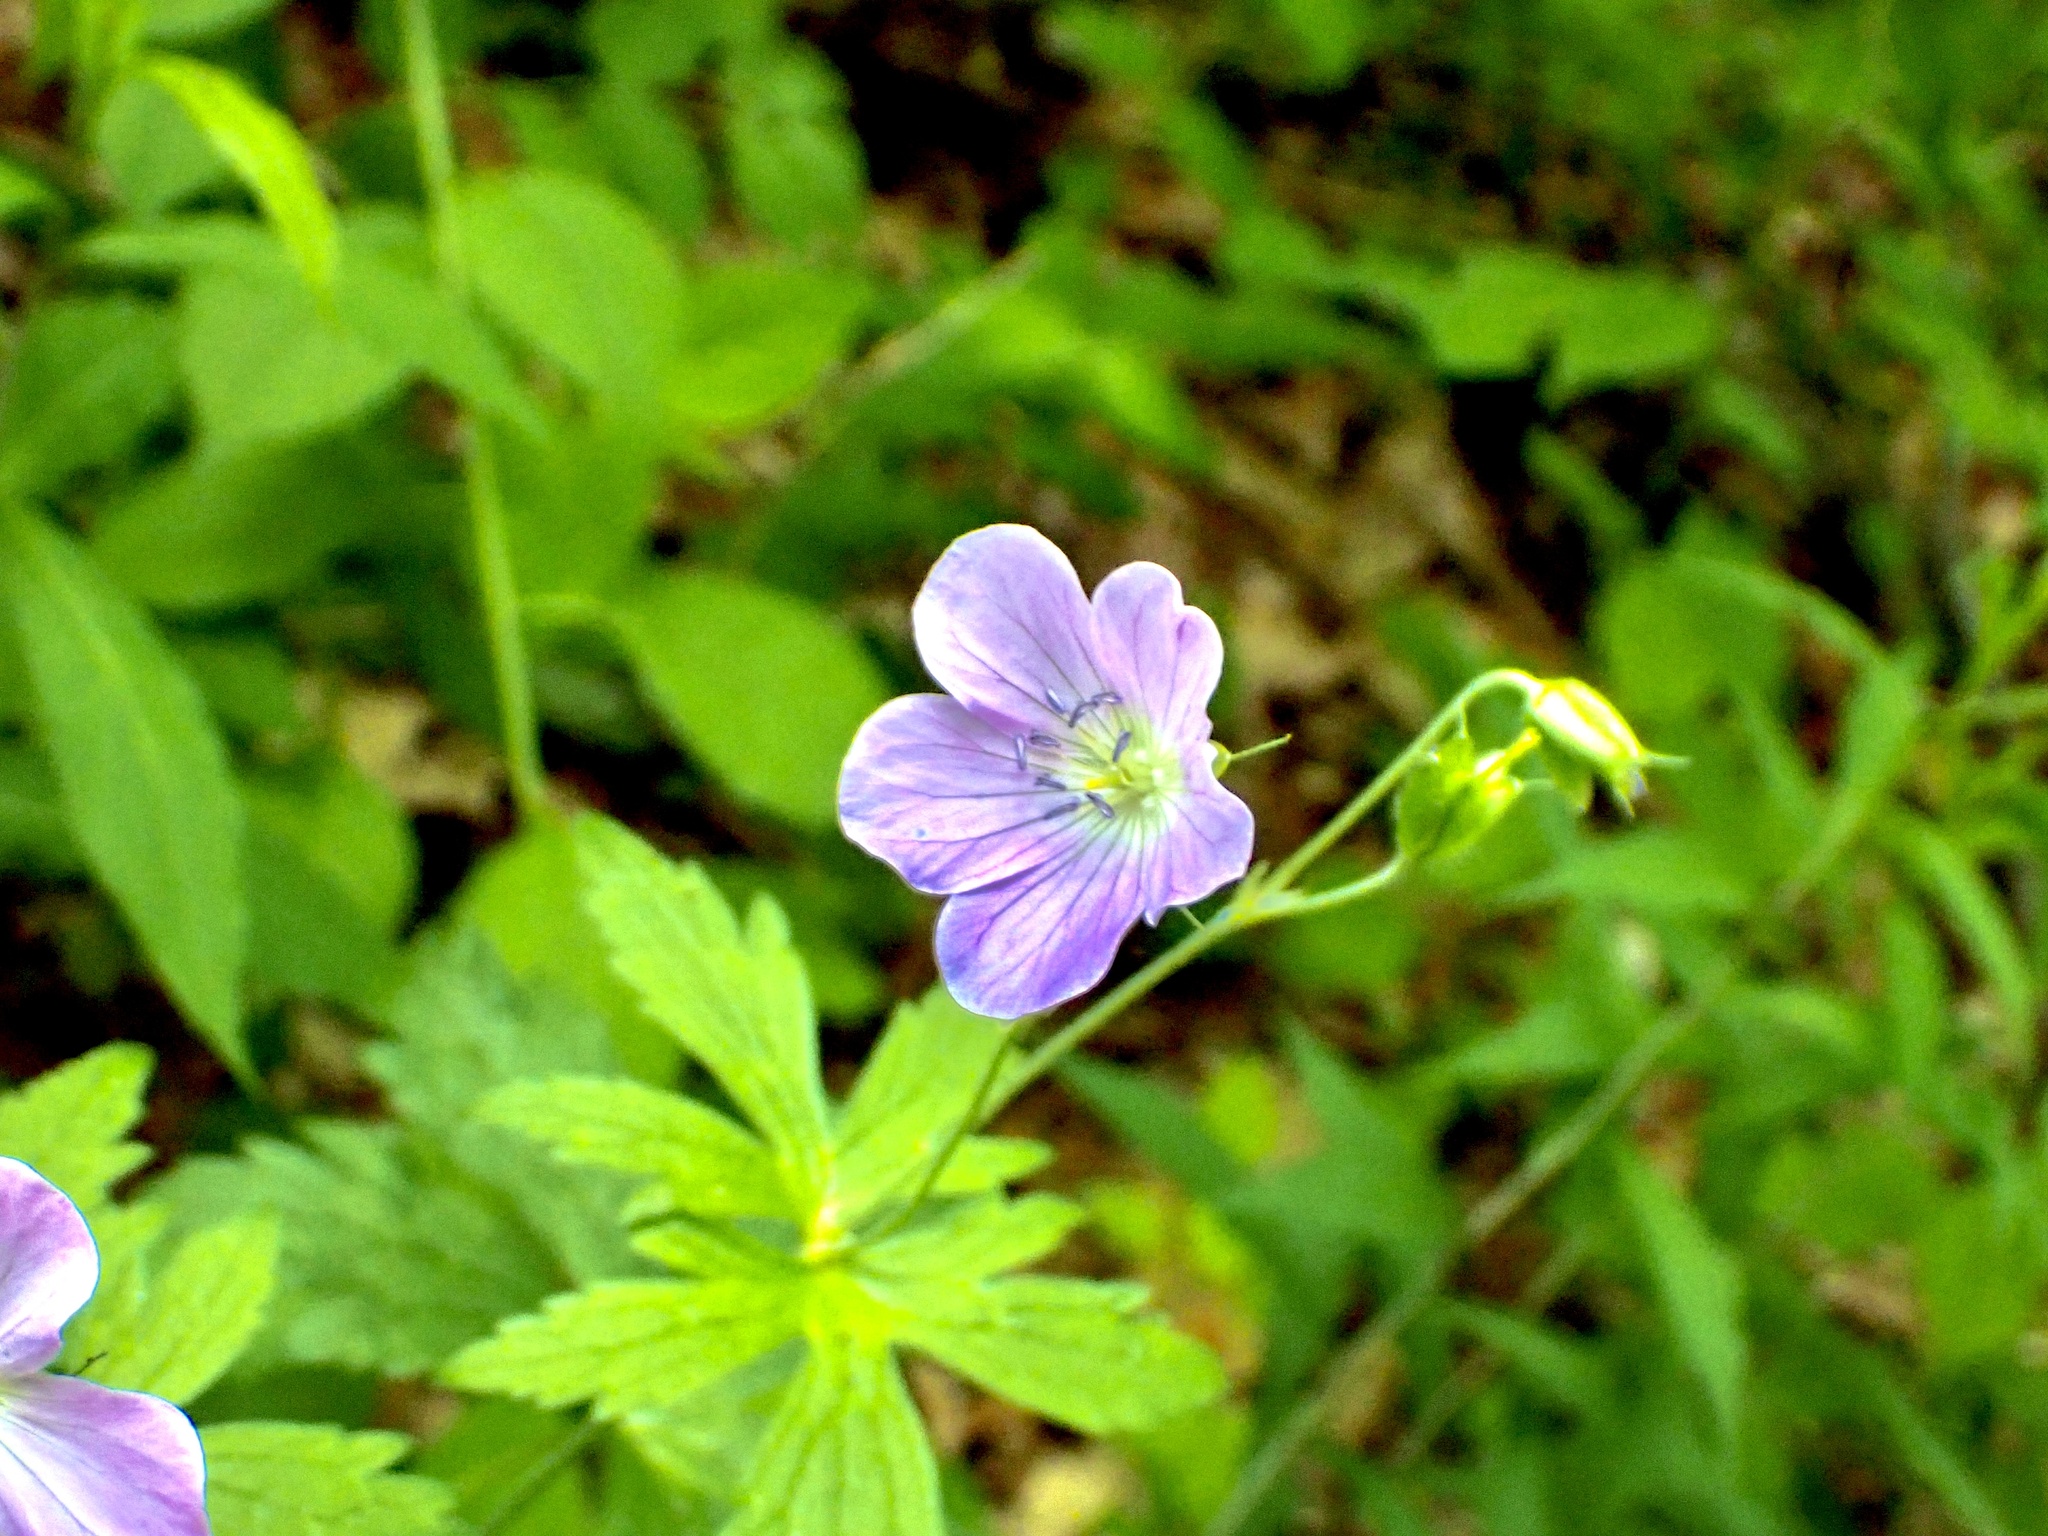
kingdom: Plantae
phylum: Tracheophyta
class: Magnoliopsida
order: Geraniales
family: Geraniaceae
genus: Geranium
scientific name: Geranium maculatum
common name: Spotted geranium
